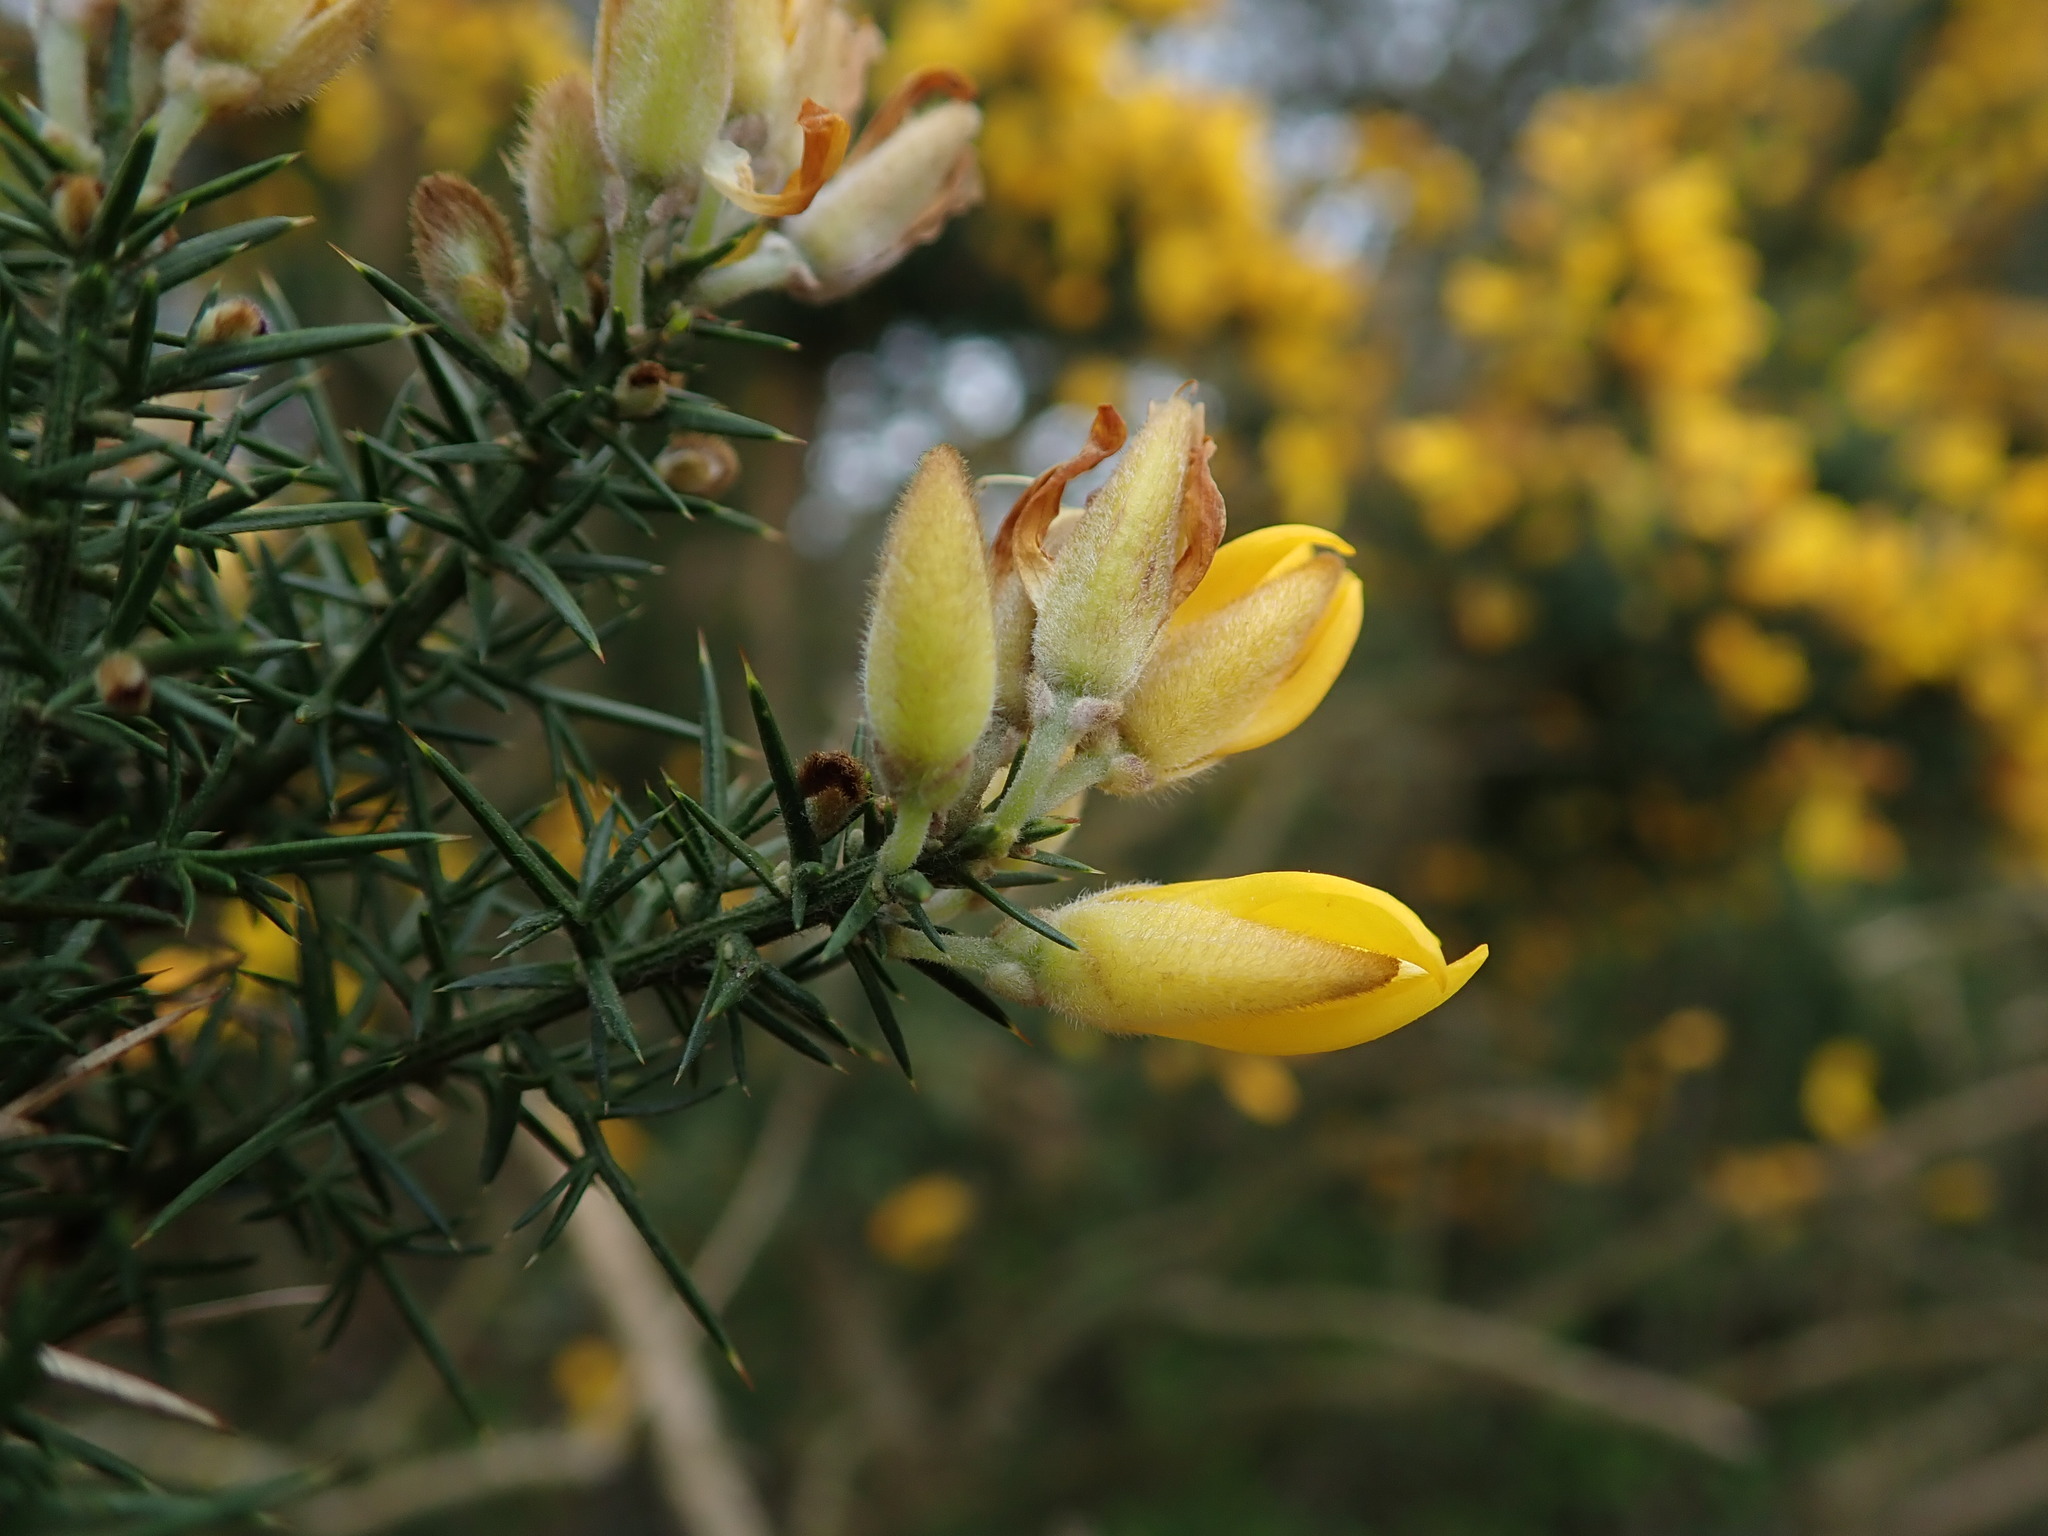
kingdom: Plantae
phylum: Tracheophyta
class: Magnoliopsida
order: Fabales
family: Fabaceae
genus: Ulex
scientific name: Ulex europaeus
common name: Common gorse
